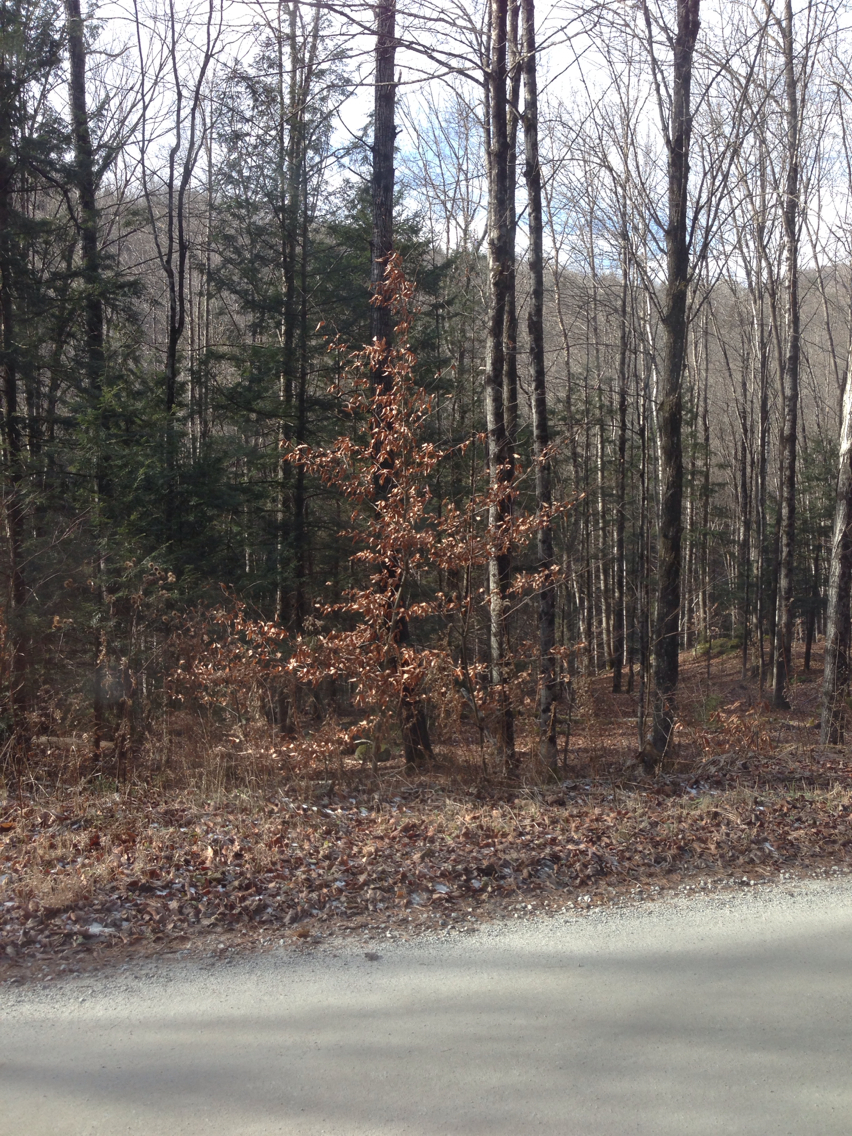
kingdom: Plantae
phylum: Tracheophyta
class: Magnoliopsida
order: Fagales
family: Fagaceae
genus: Fagus
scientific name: Fagus grandifolia
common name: American beech
